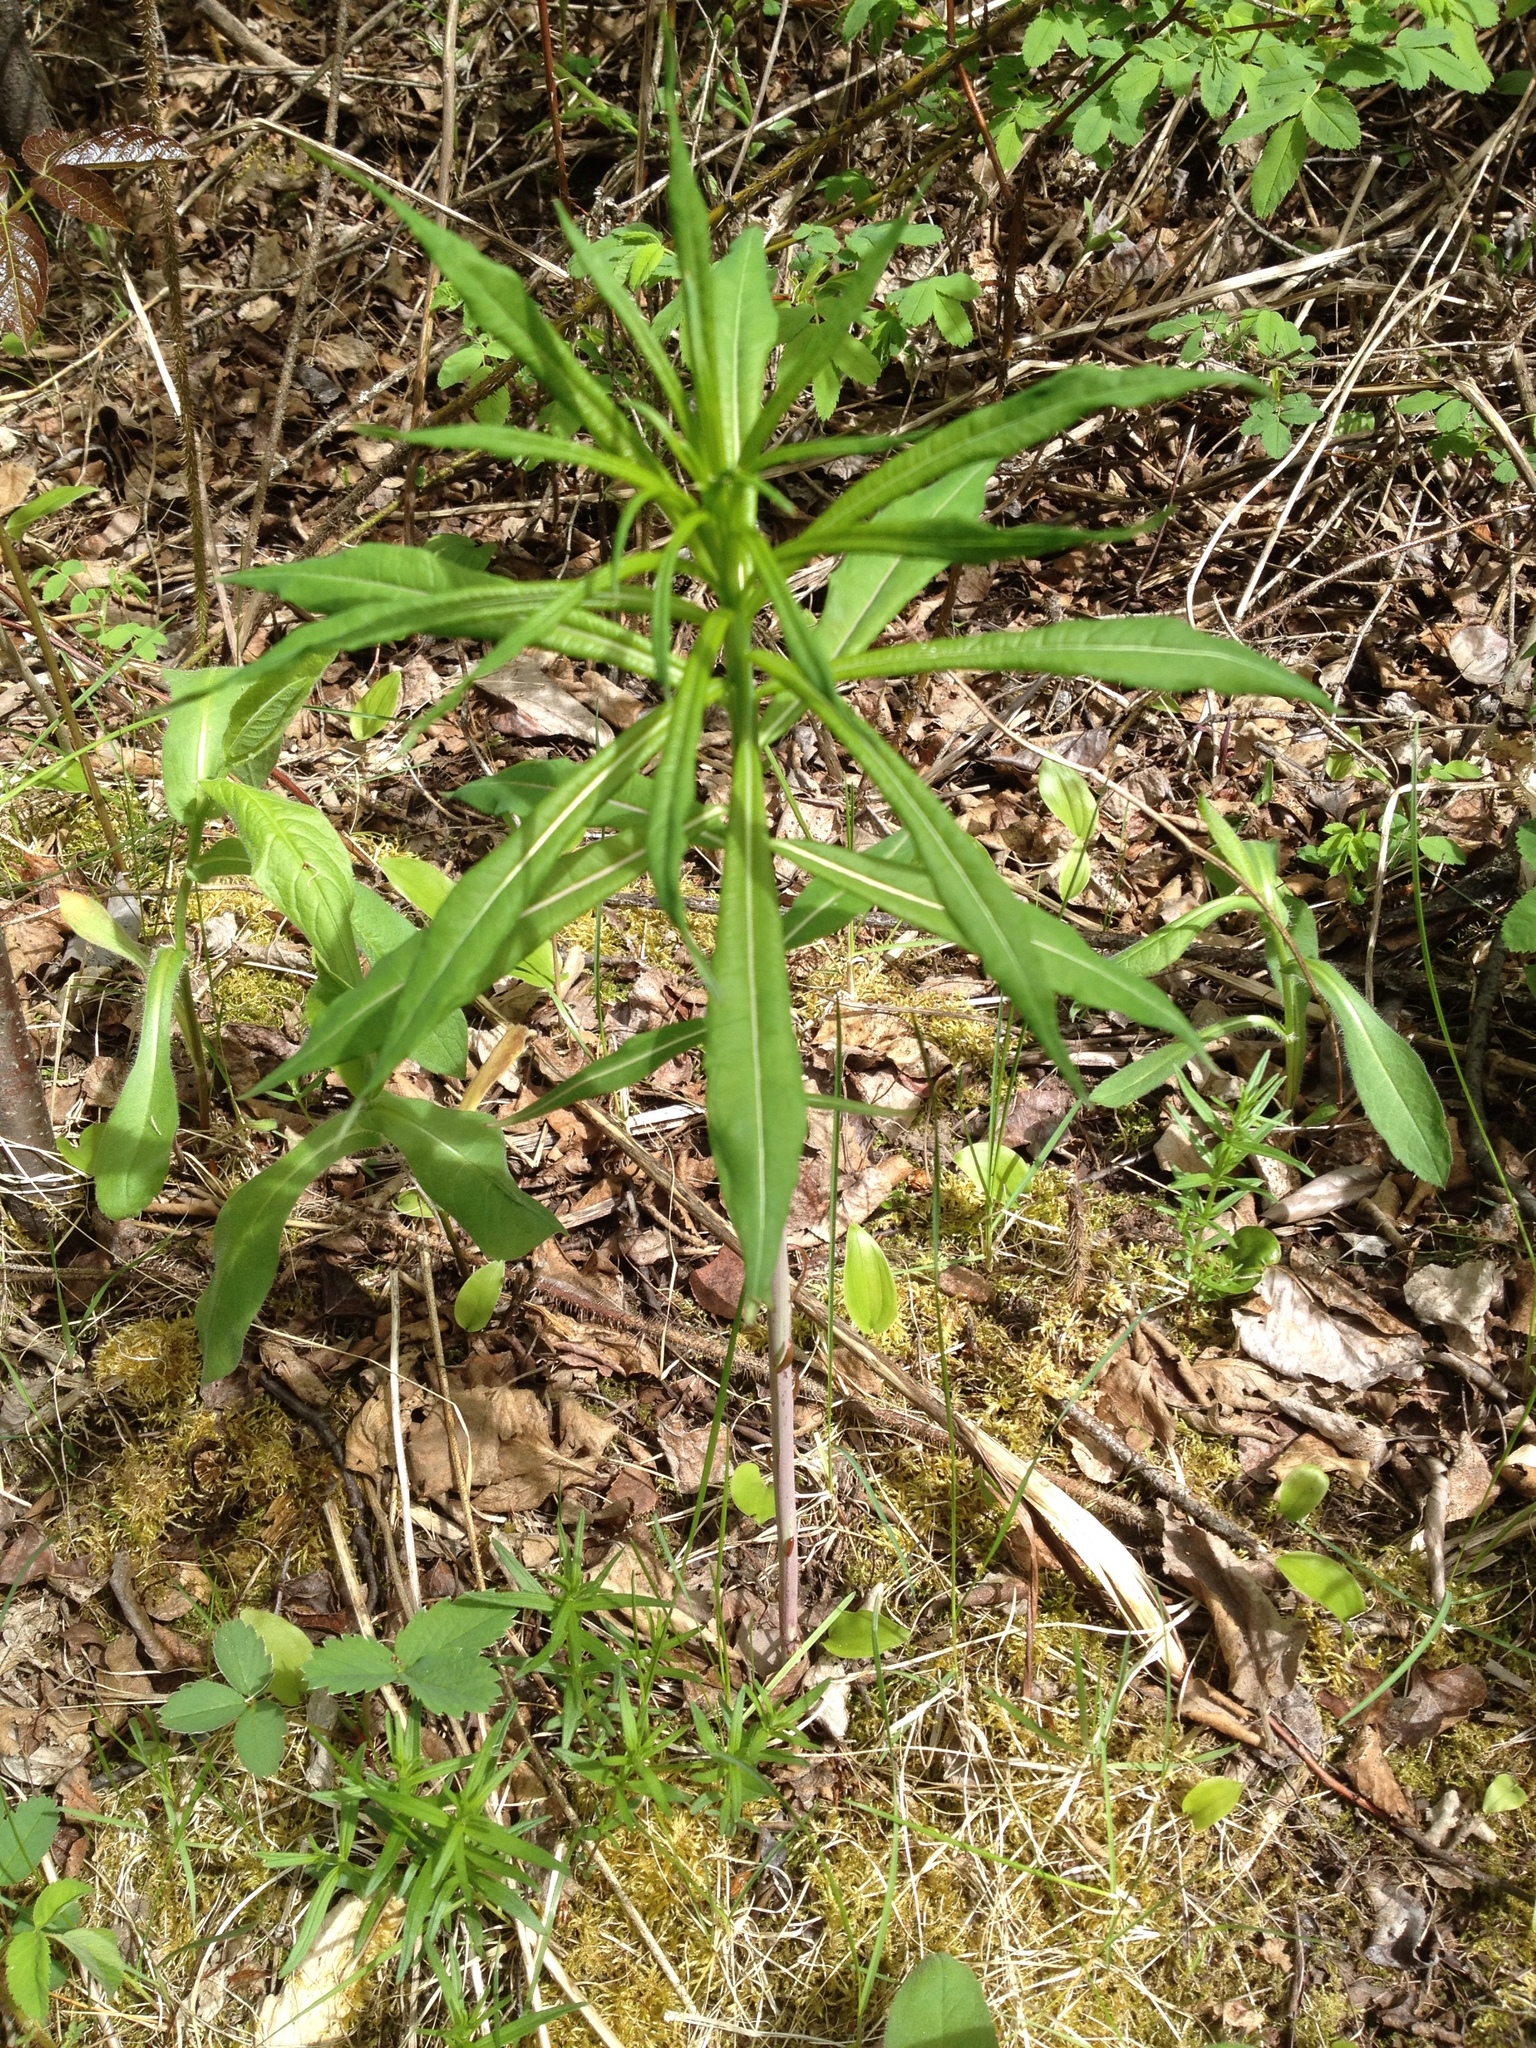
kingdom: Plantae
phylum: Tracheophyta
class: Magnoliopsida
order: Myrtales
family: Onagraceae
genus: Chamaenerion
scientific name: Chamaenerion angustifolium
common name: Fireweed
